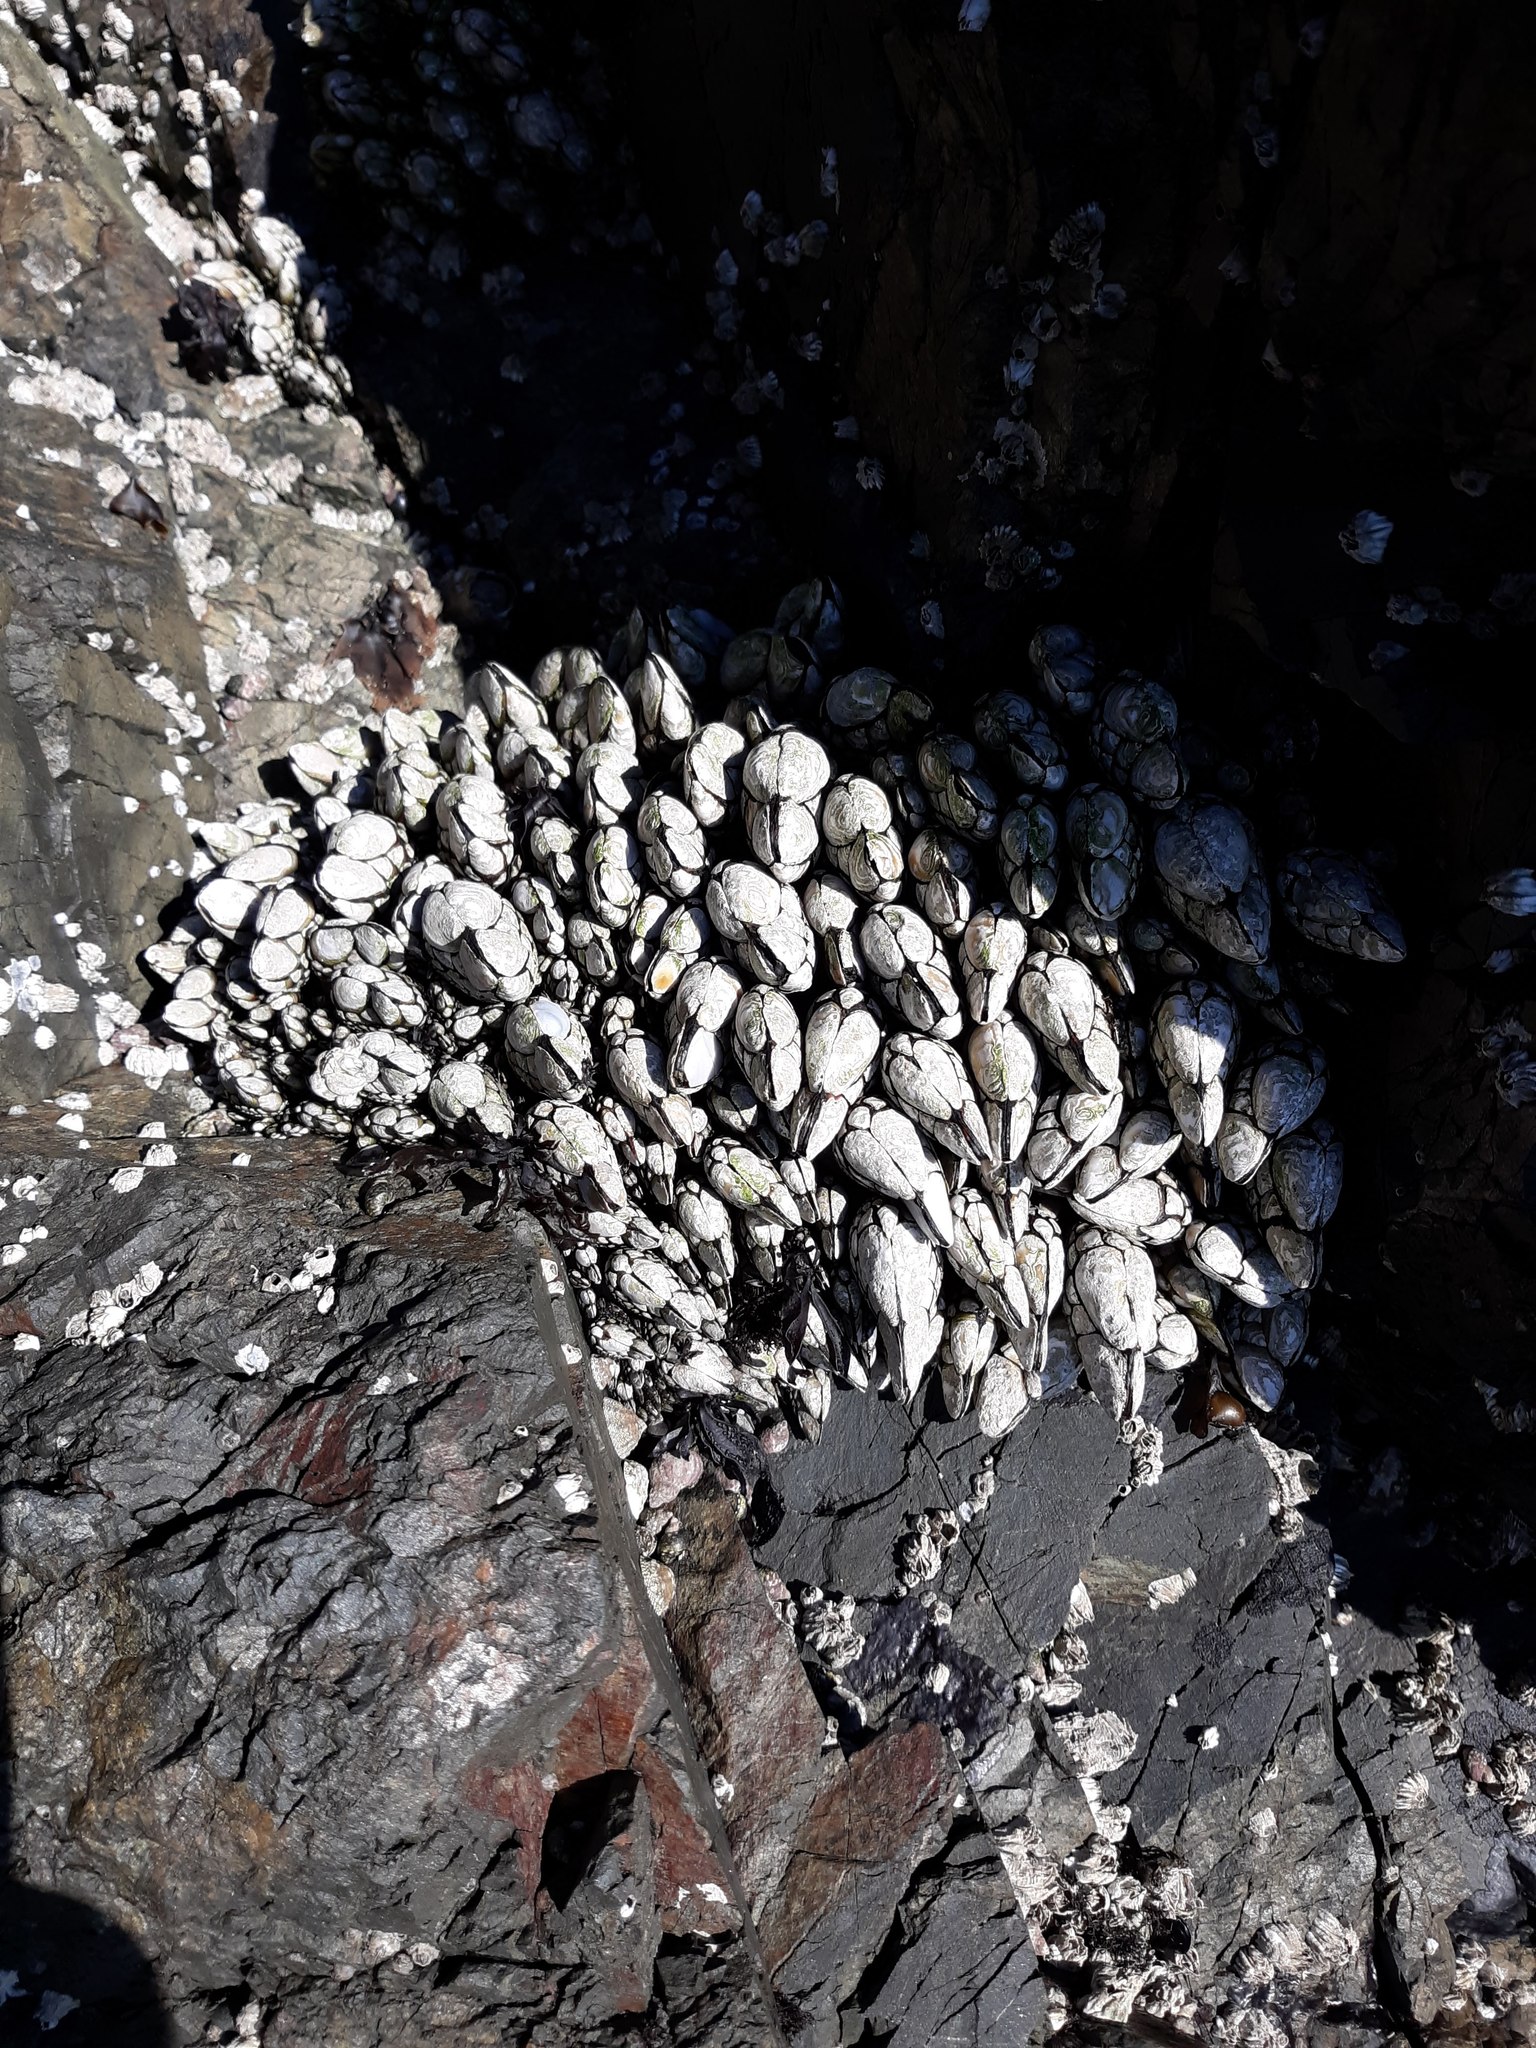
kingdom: Animalia
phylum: Arthropoda
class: Maxillopoda
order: Pedunculata
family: Pollicipedidae
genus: Pollicipes
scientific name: Pollicipes polymerus
